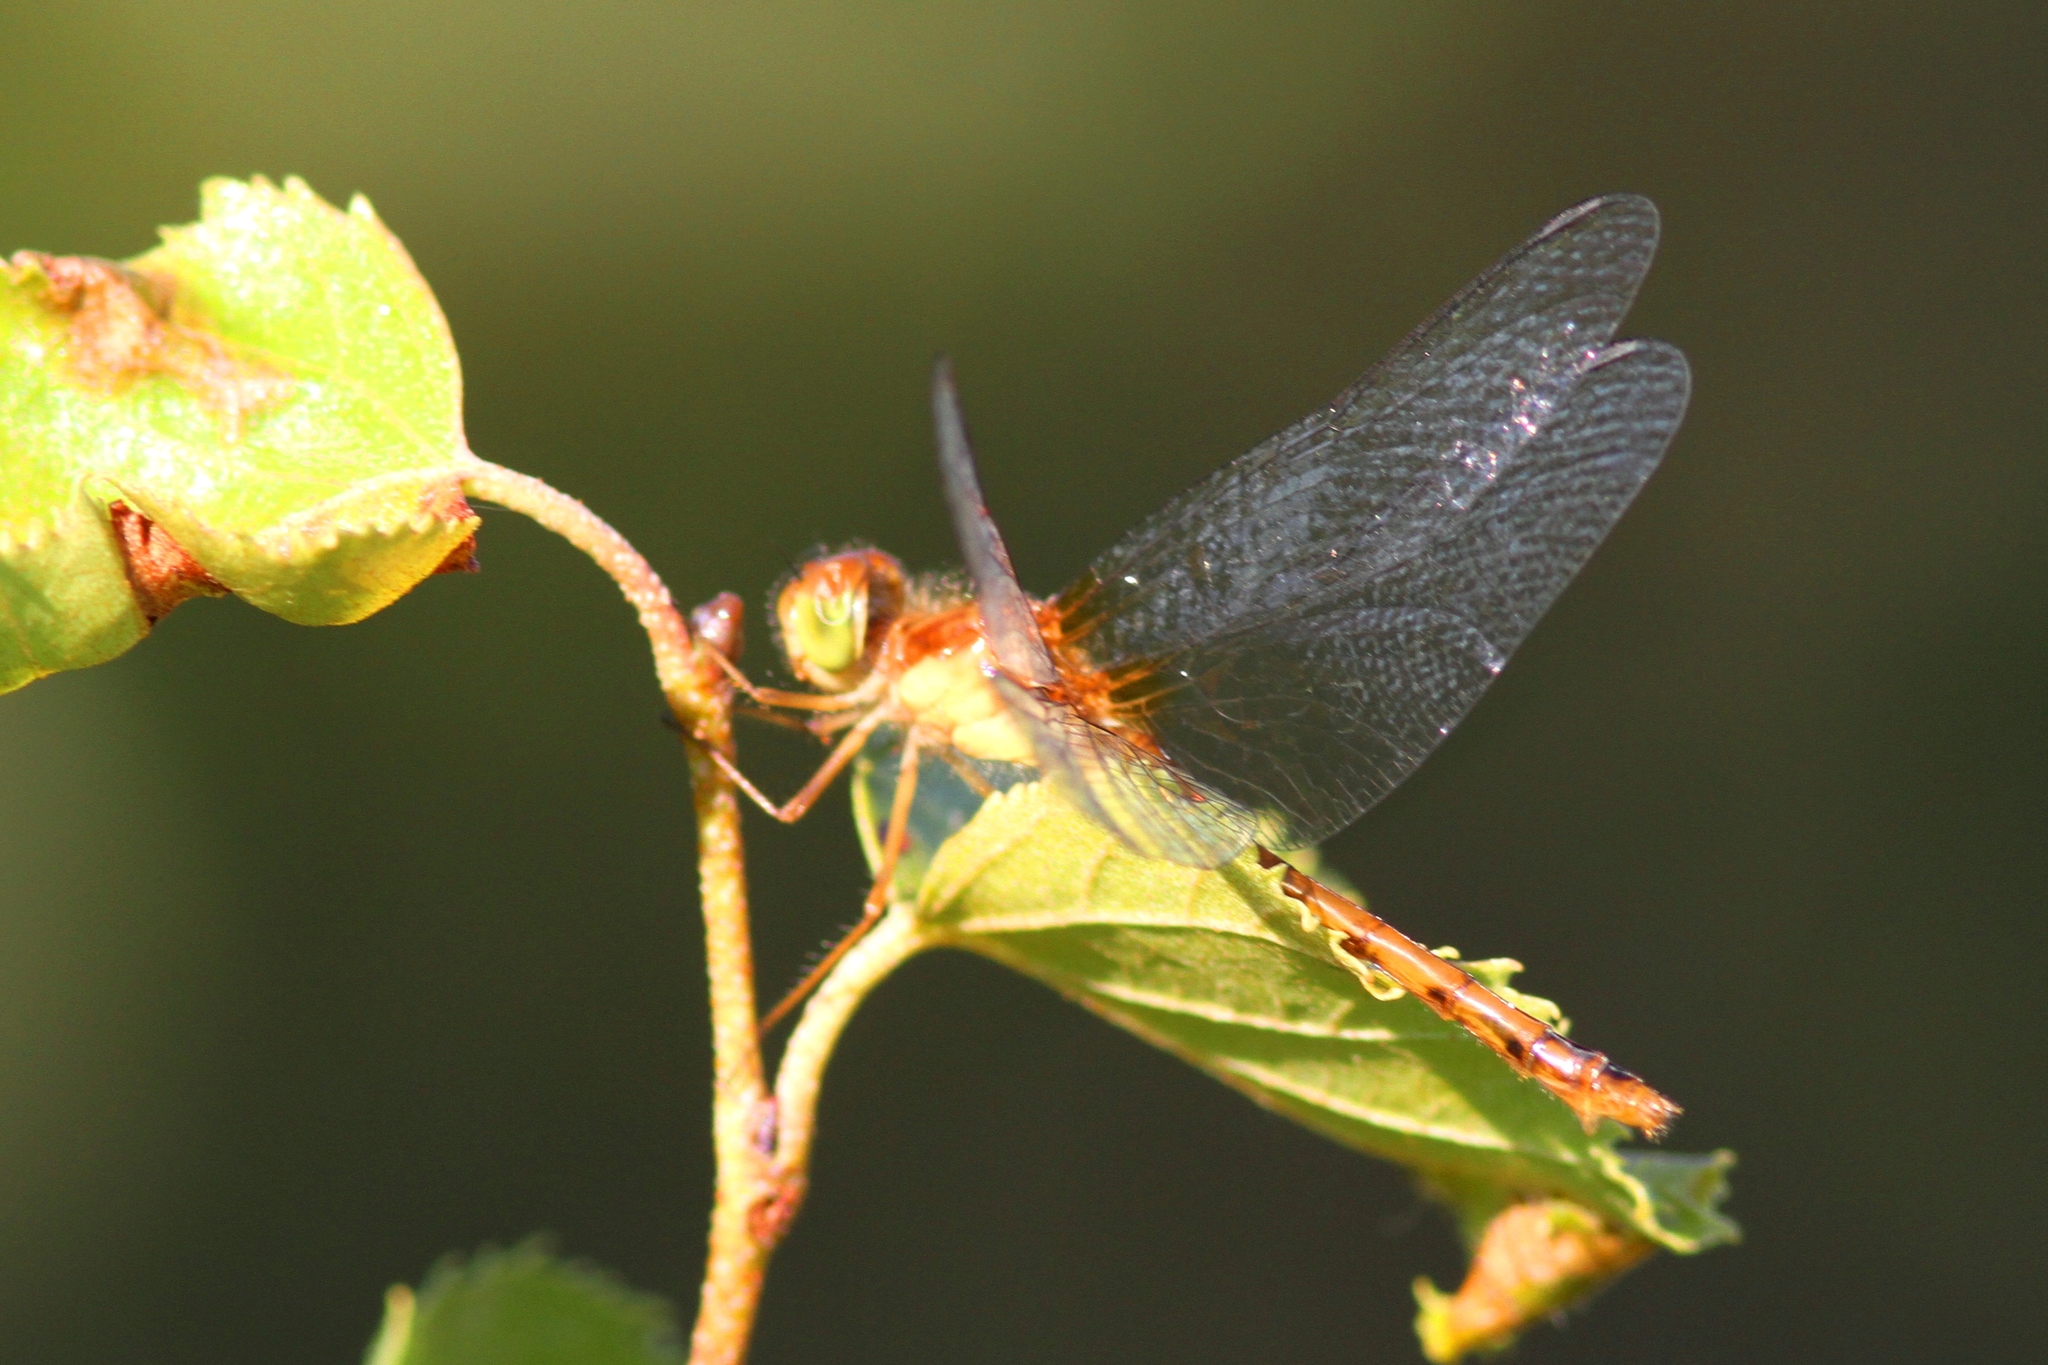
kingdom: Animalia
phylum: Arthropoda
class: Insecta
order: Odonata
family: Libellulidae
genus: Sympetrum
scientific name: Sympetrum vicinum
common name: Autumn meadowhawk
